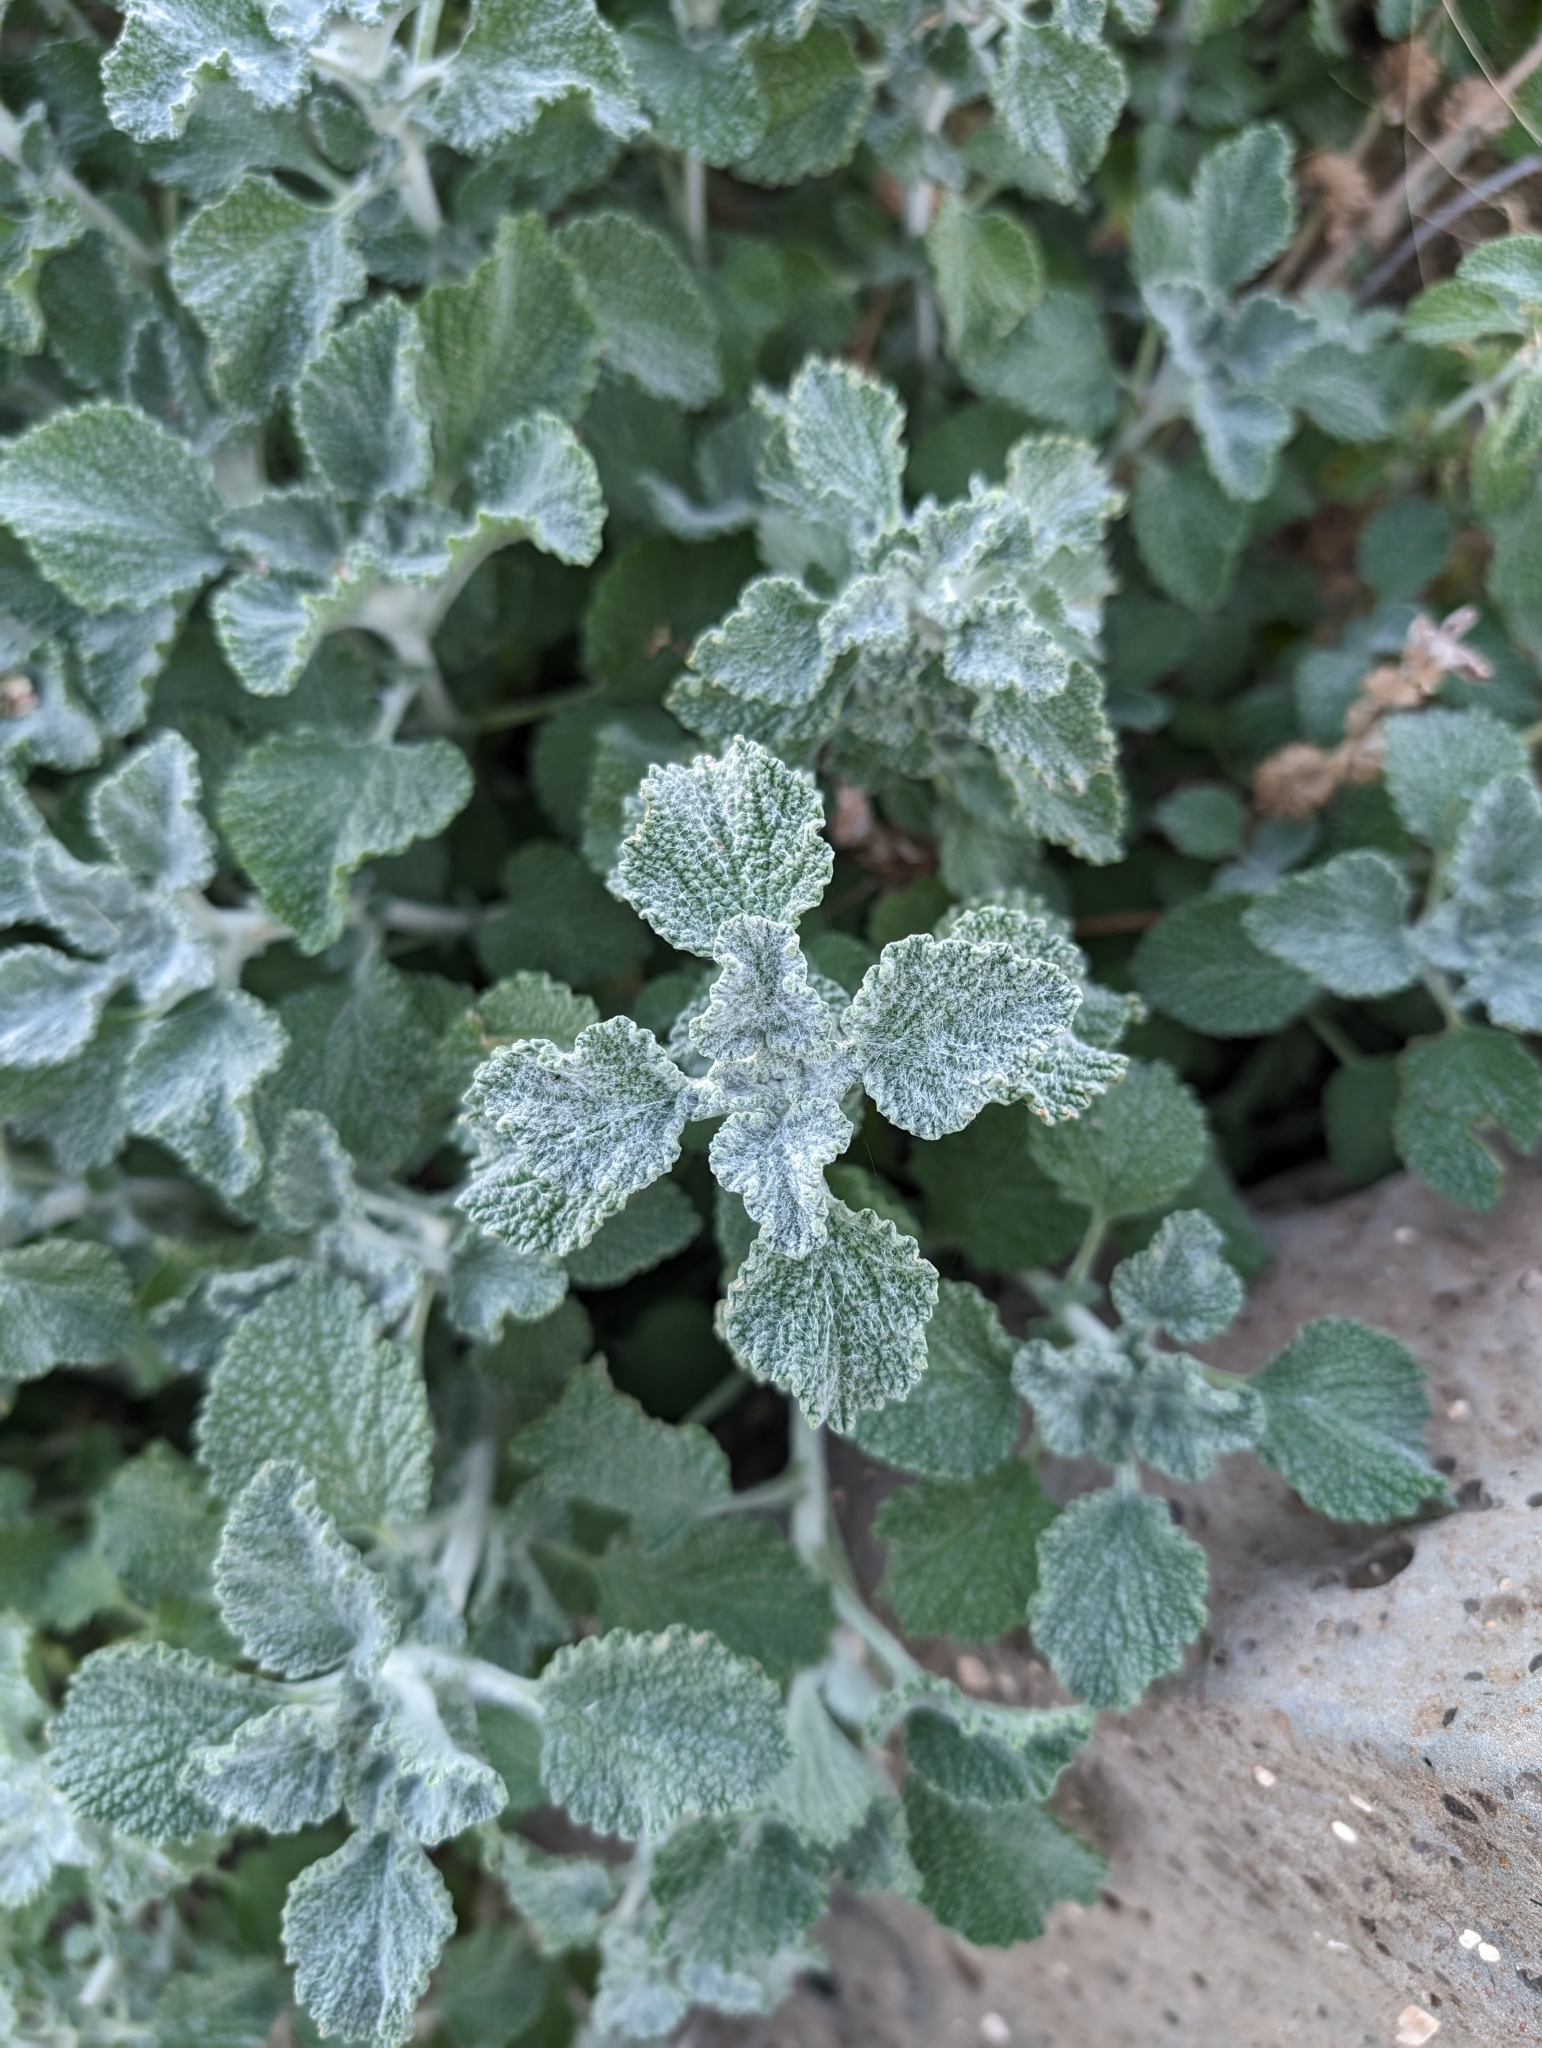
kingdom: Plantae
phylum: Tracheophyta
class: Magnoliopsida
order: Lamiales
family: Lamiaceae
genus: Marrubium
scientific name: Marrubium vulgare
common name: Horehound
